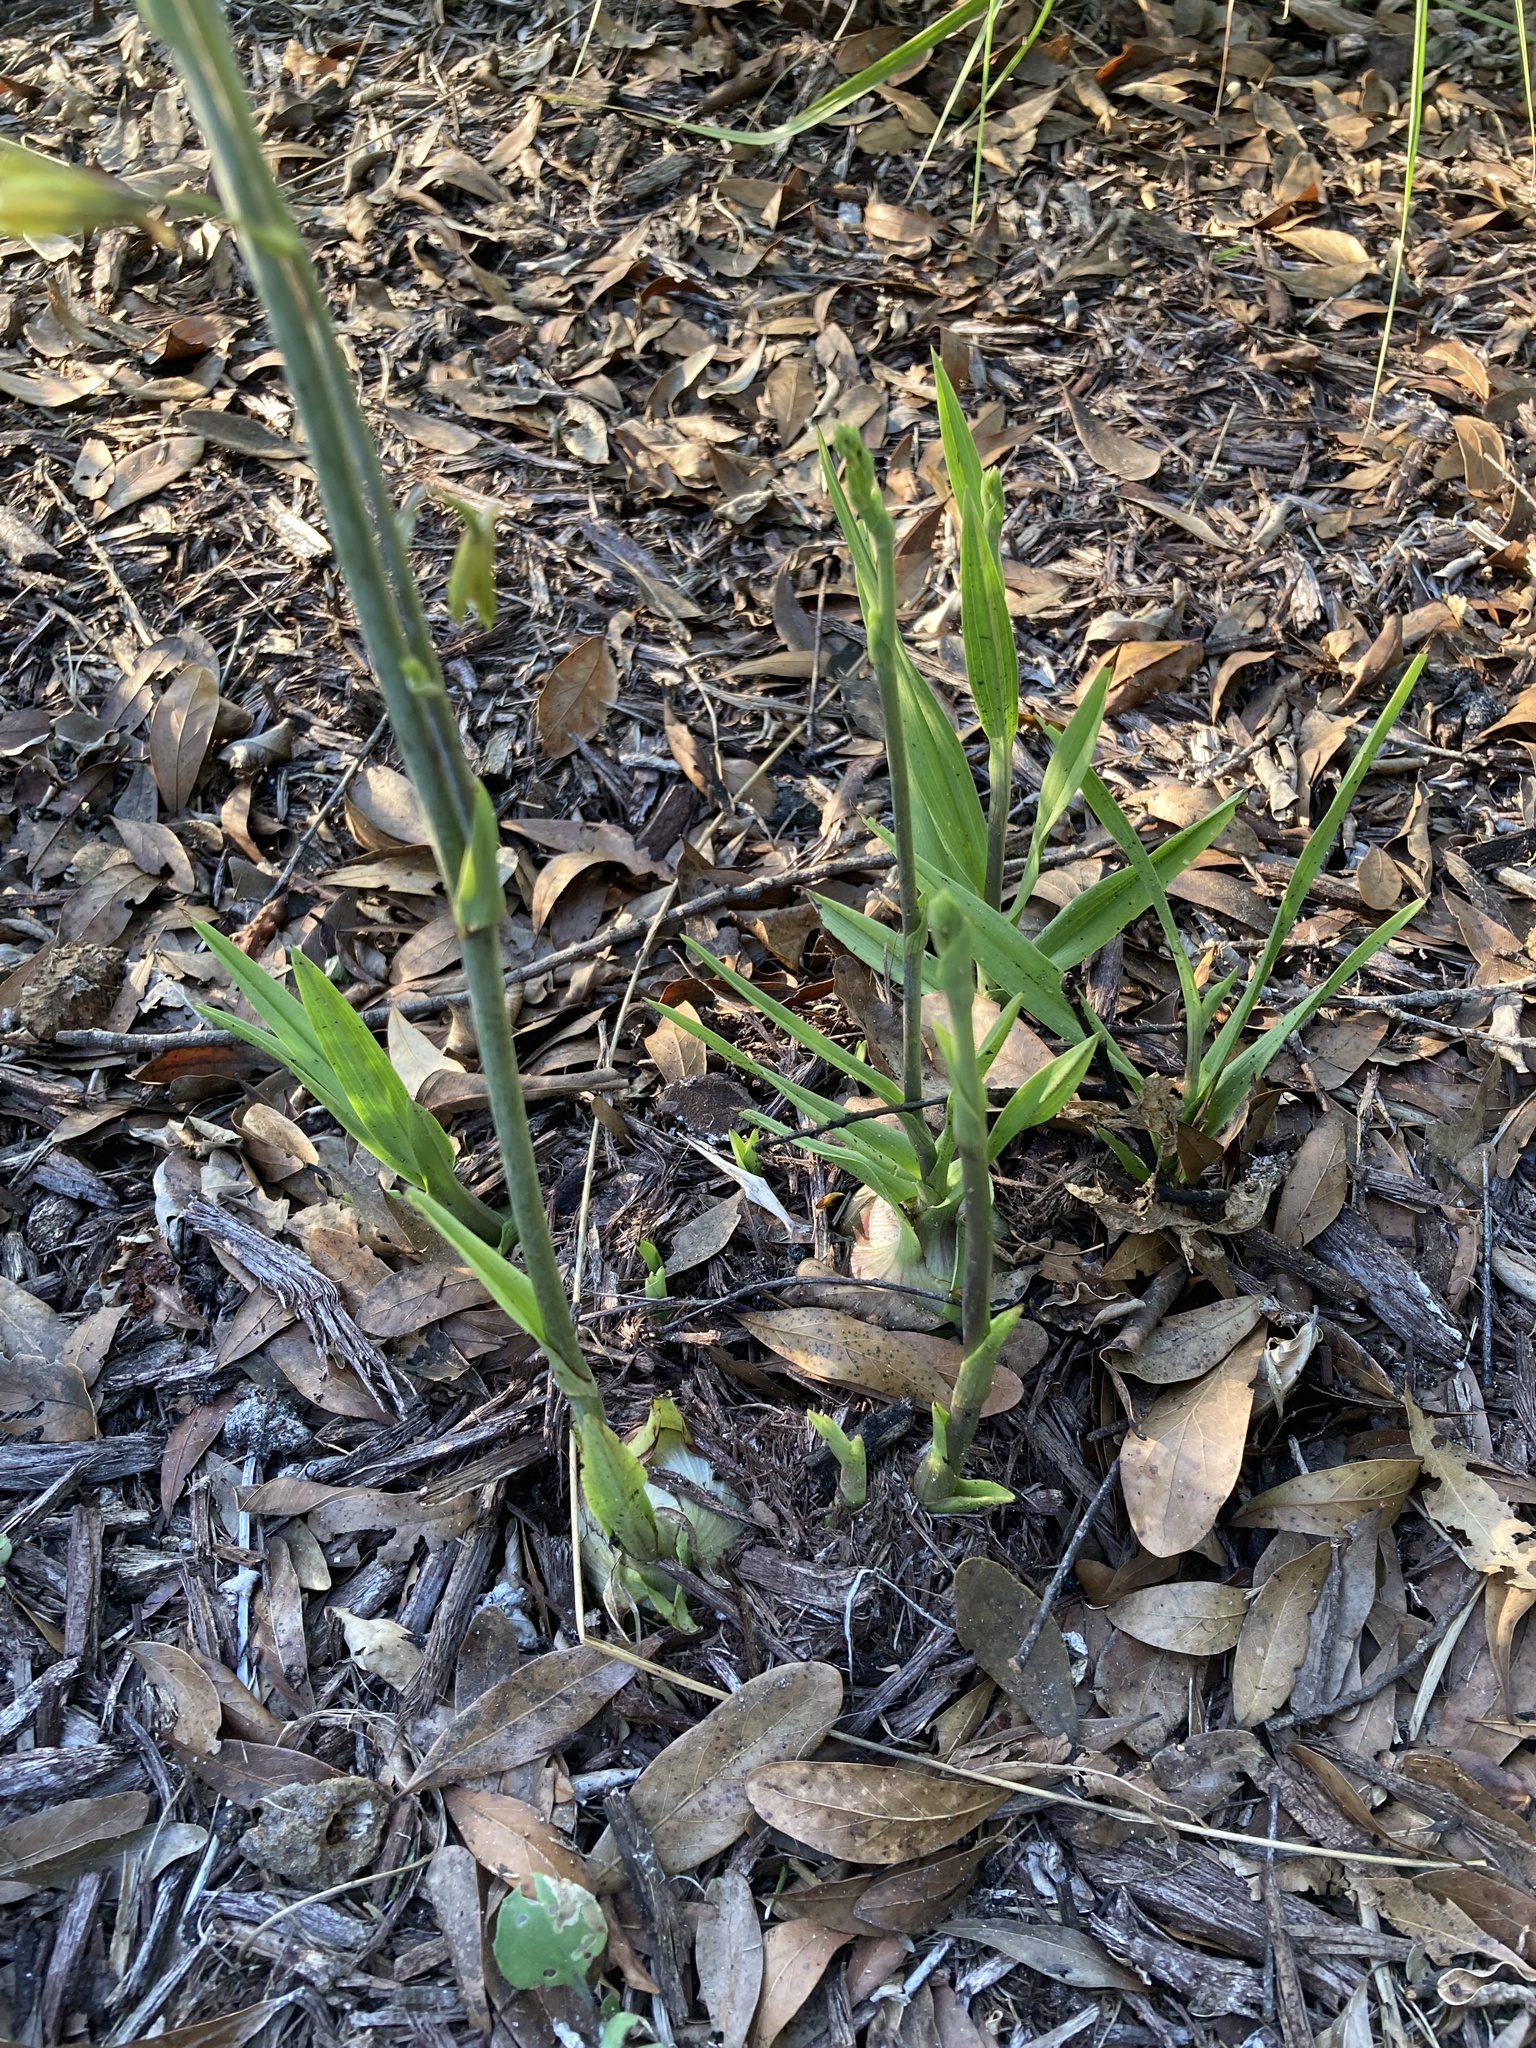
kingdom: Plantae
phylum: Tracheophyta
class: Liliopsida
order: Asparagales
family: Orchidaceae
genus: Eulophia
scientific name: Eulophia graminea
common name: Orchid
